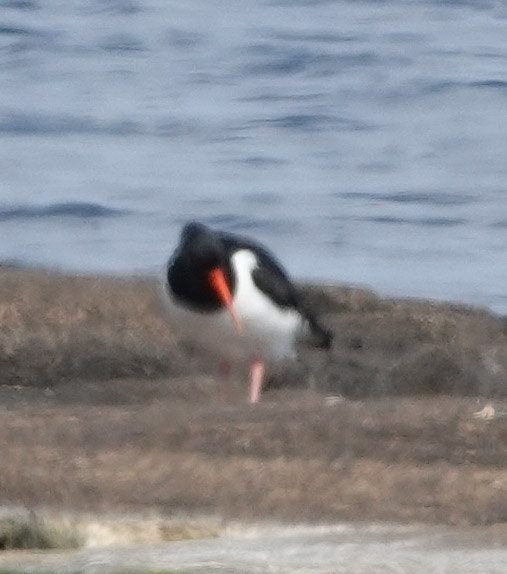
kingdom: Animalia
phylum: Chordata
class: Aves
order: Charadriiformes
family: Haematopodidae
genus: Haematopus
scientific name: Haematopus ostralegus
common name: Eurasian oystercatcher
